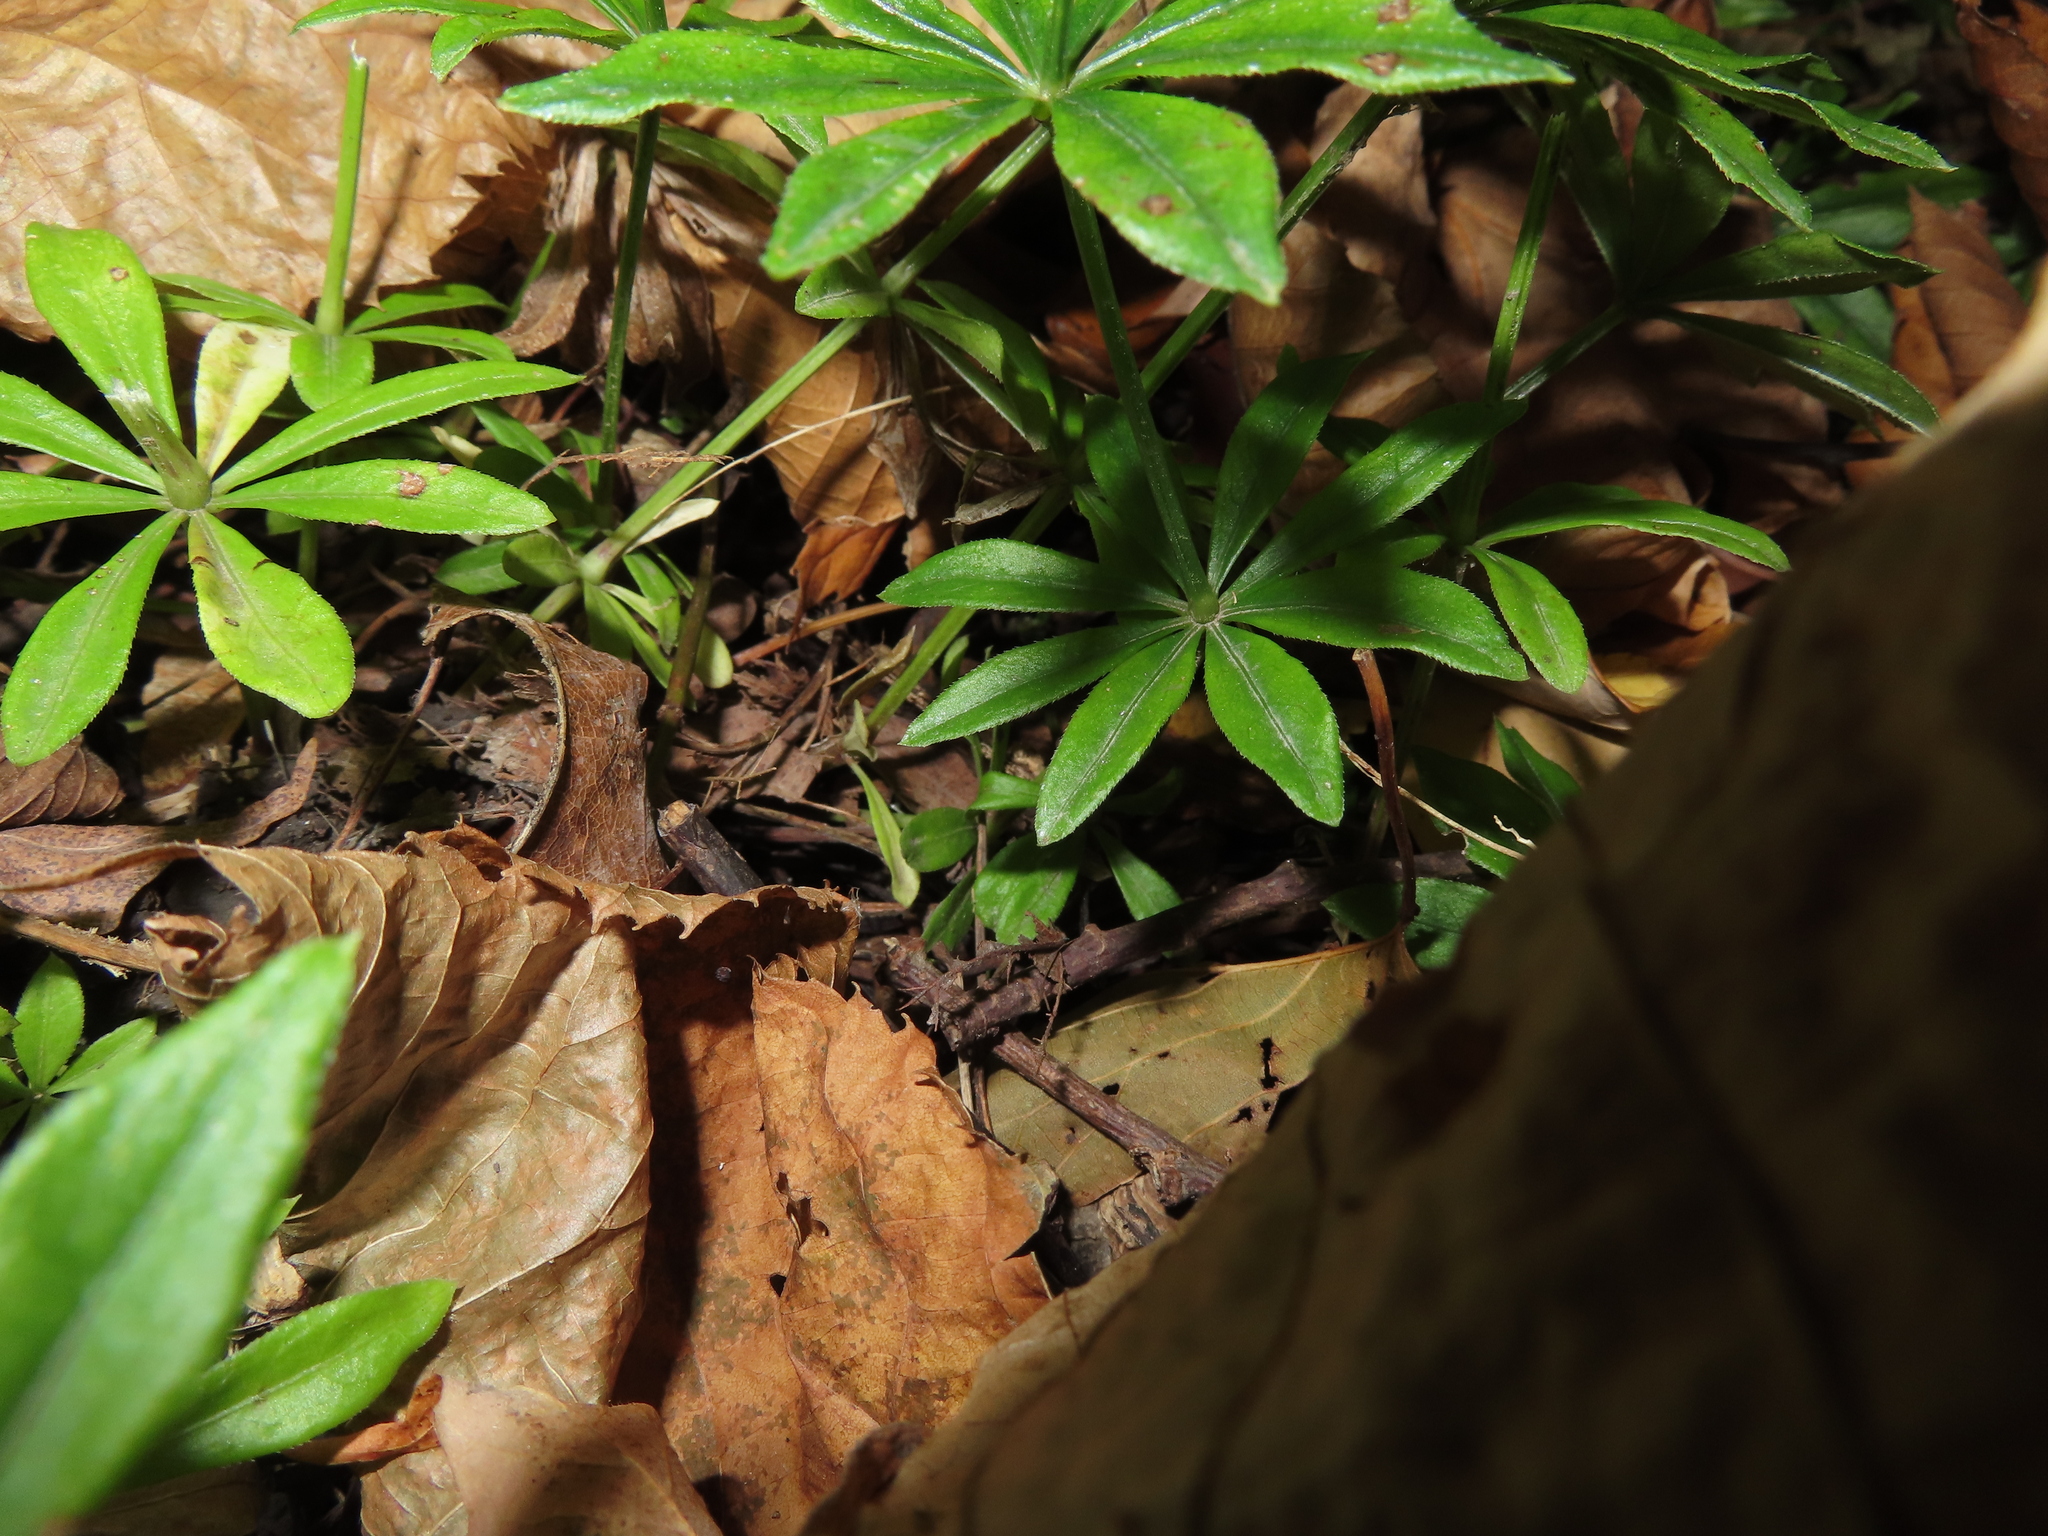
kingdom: Plantae
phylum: Tracheophyta
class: Magnoliopsida
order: Gentianales
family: Rubiaceae
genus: Galium
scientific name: Galium odoratum
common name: Sweet woodruff
